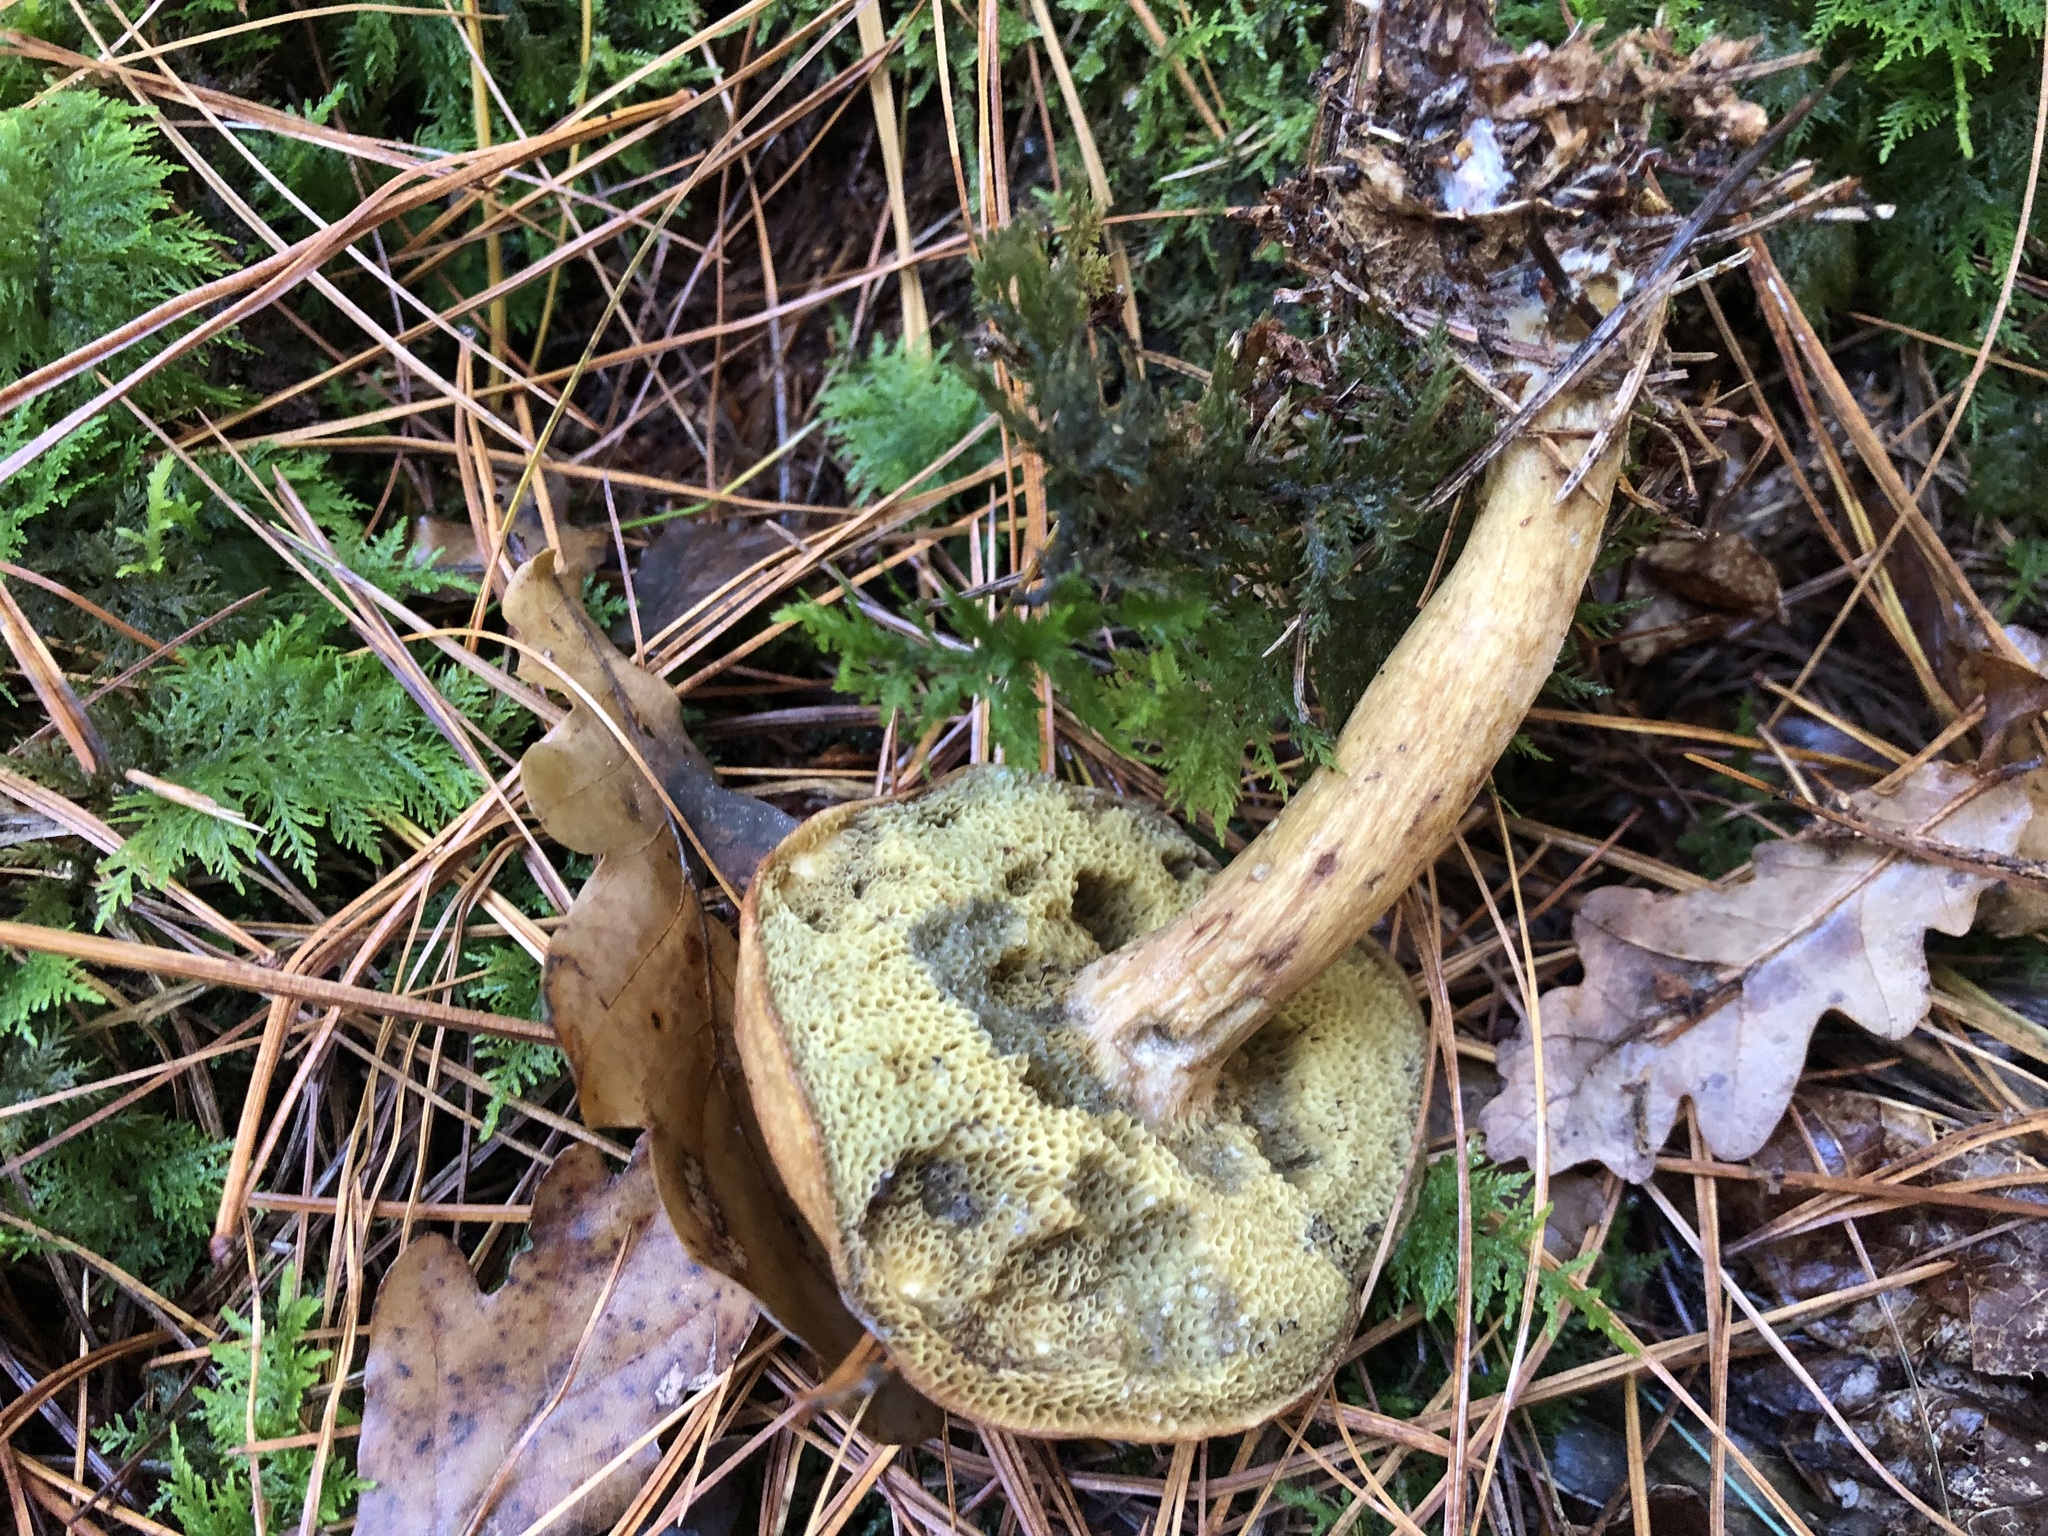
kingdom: Fungi
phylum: Basidiomycota
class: Agaricomycetes
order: Boletales
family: Boletaceae
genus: Imleria
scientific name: Imleria badia
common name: Bay bolete
